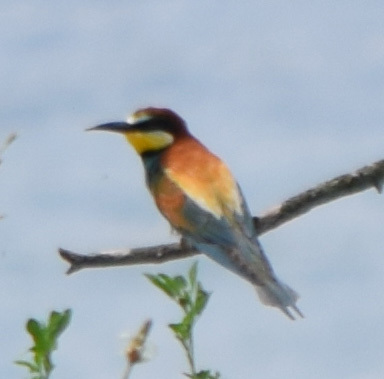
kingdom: Animalia
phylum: Chordata
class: Aves
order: Coraciiformes
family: Meropidae
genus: Merops
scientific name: Merops apiaster
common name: European bee-eater
